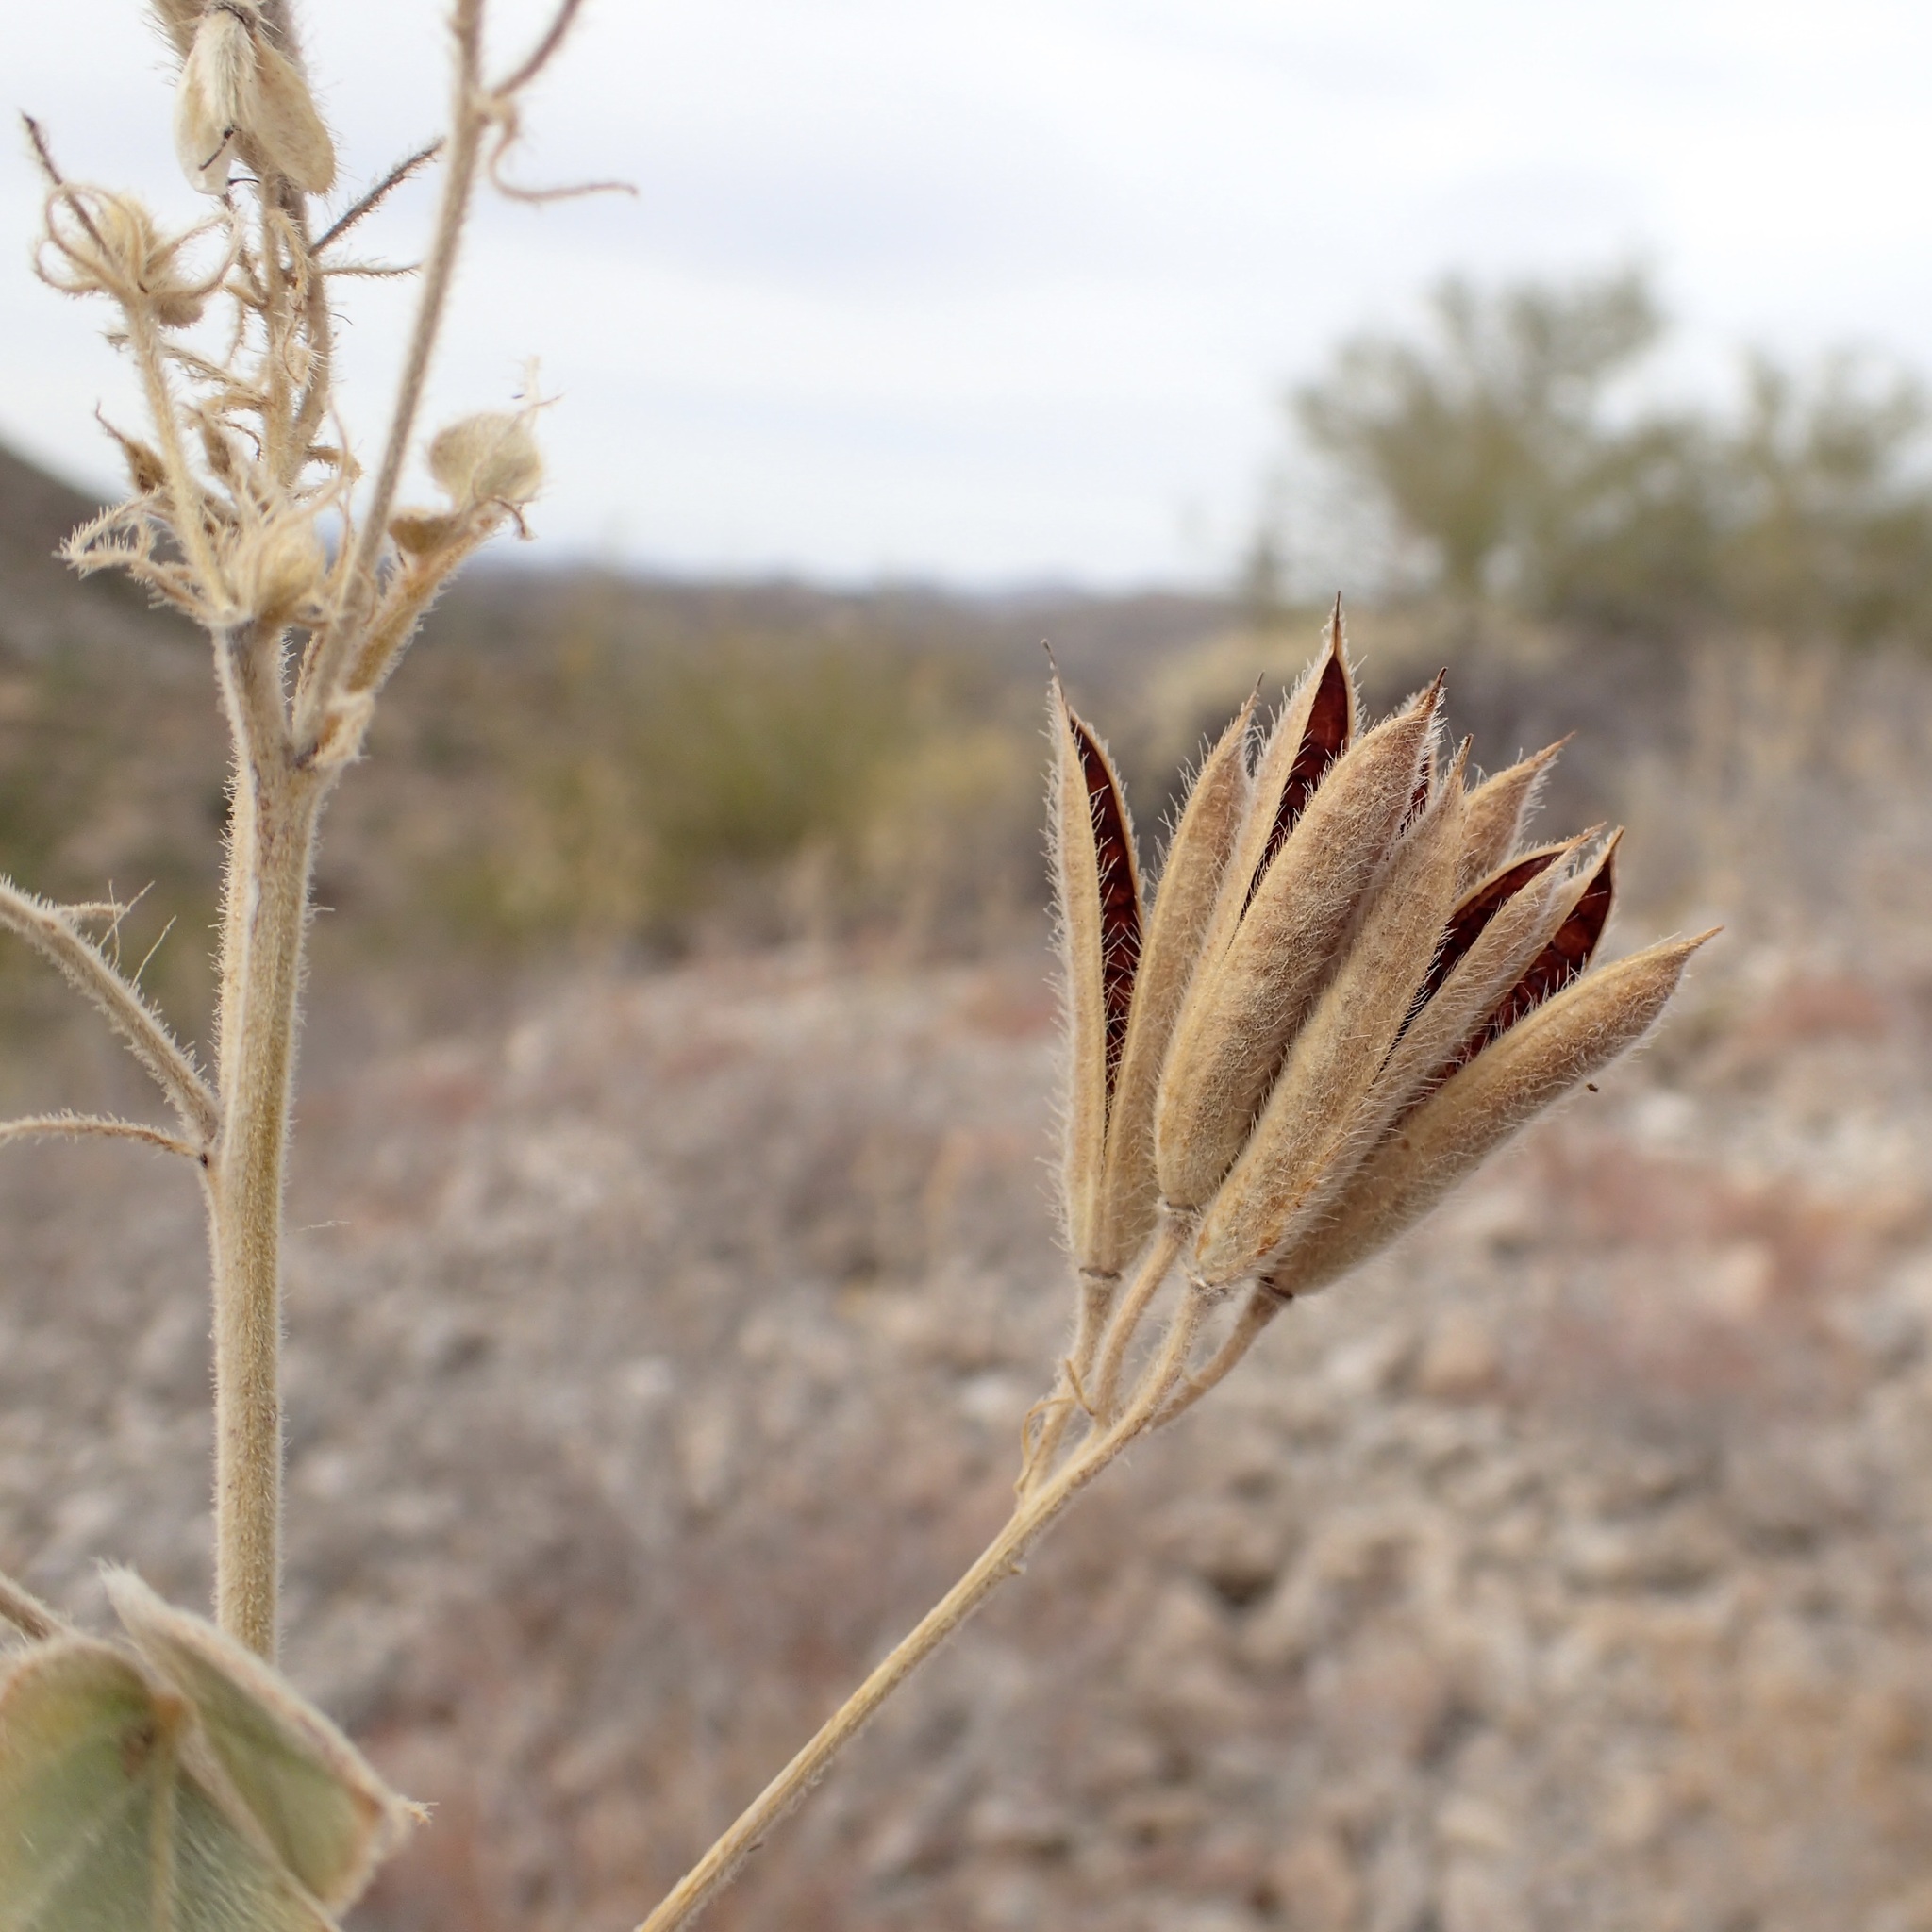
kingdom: Plantae
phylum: Tracheophyta
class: Magnoliopsida
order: Fabales
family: Fabaceae
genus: Senna
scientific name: Senna confinis
